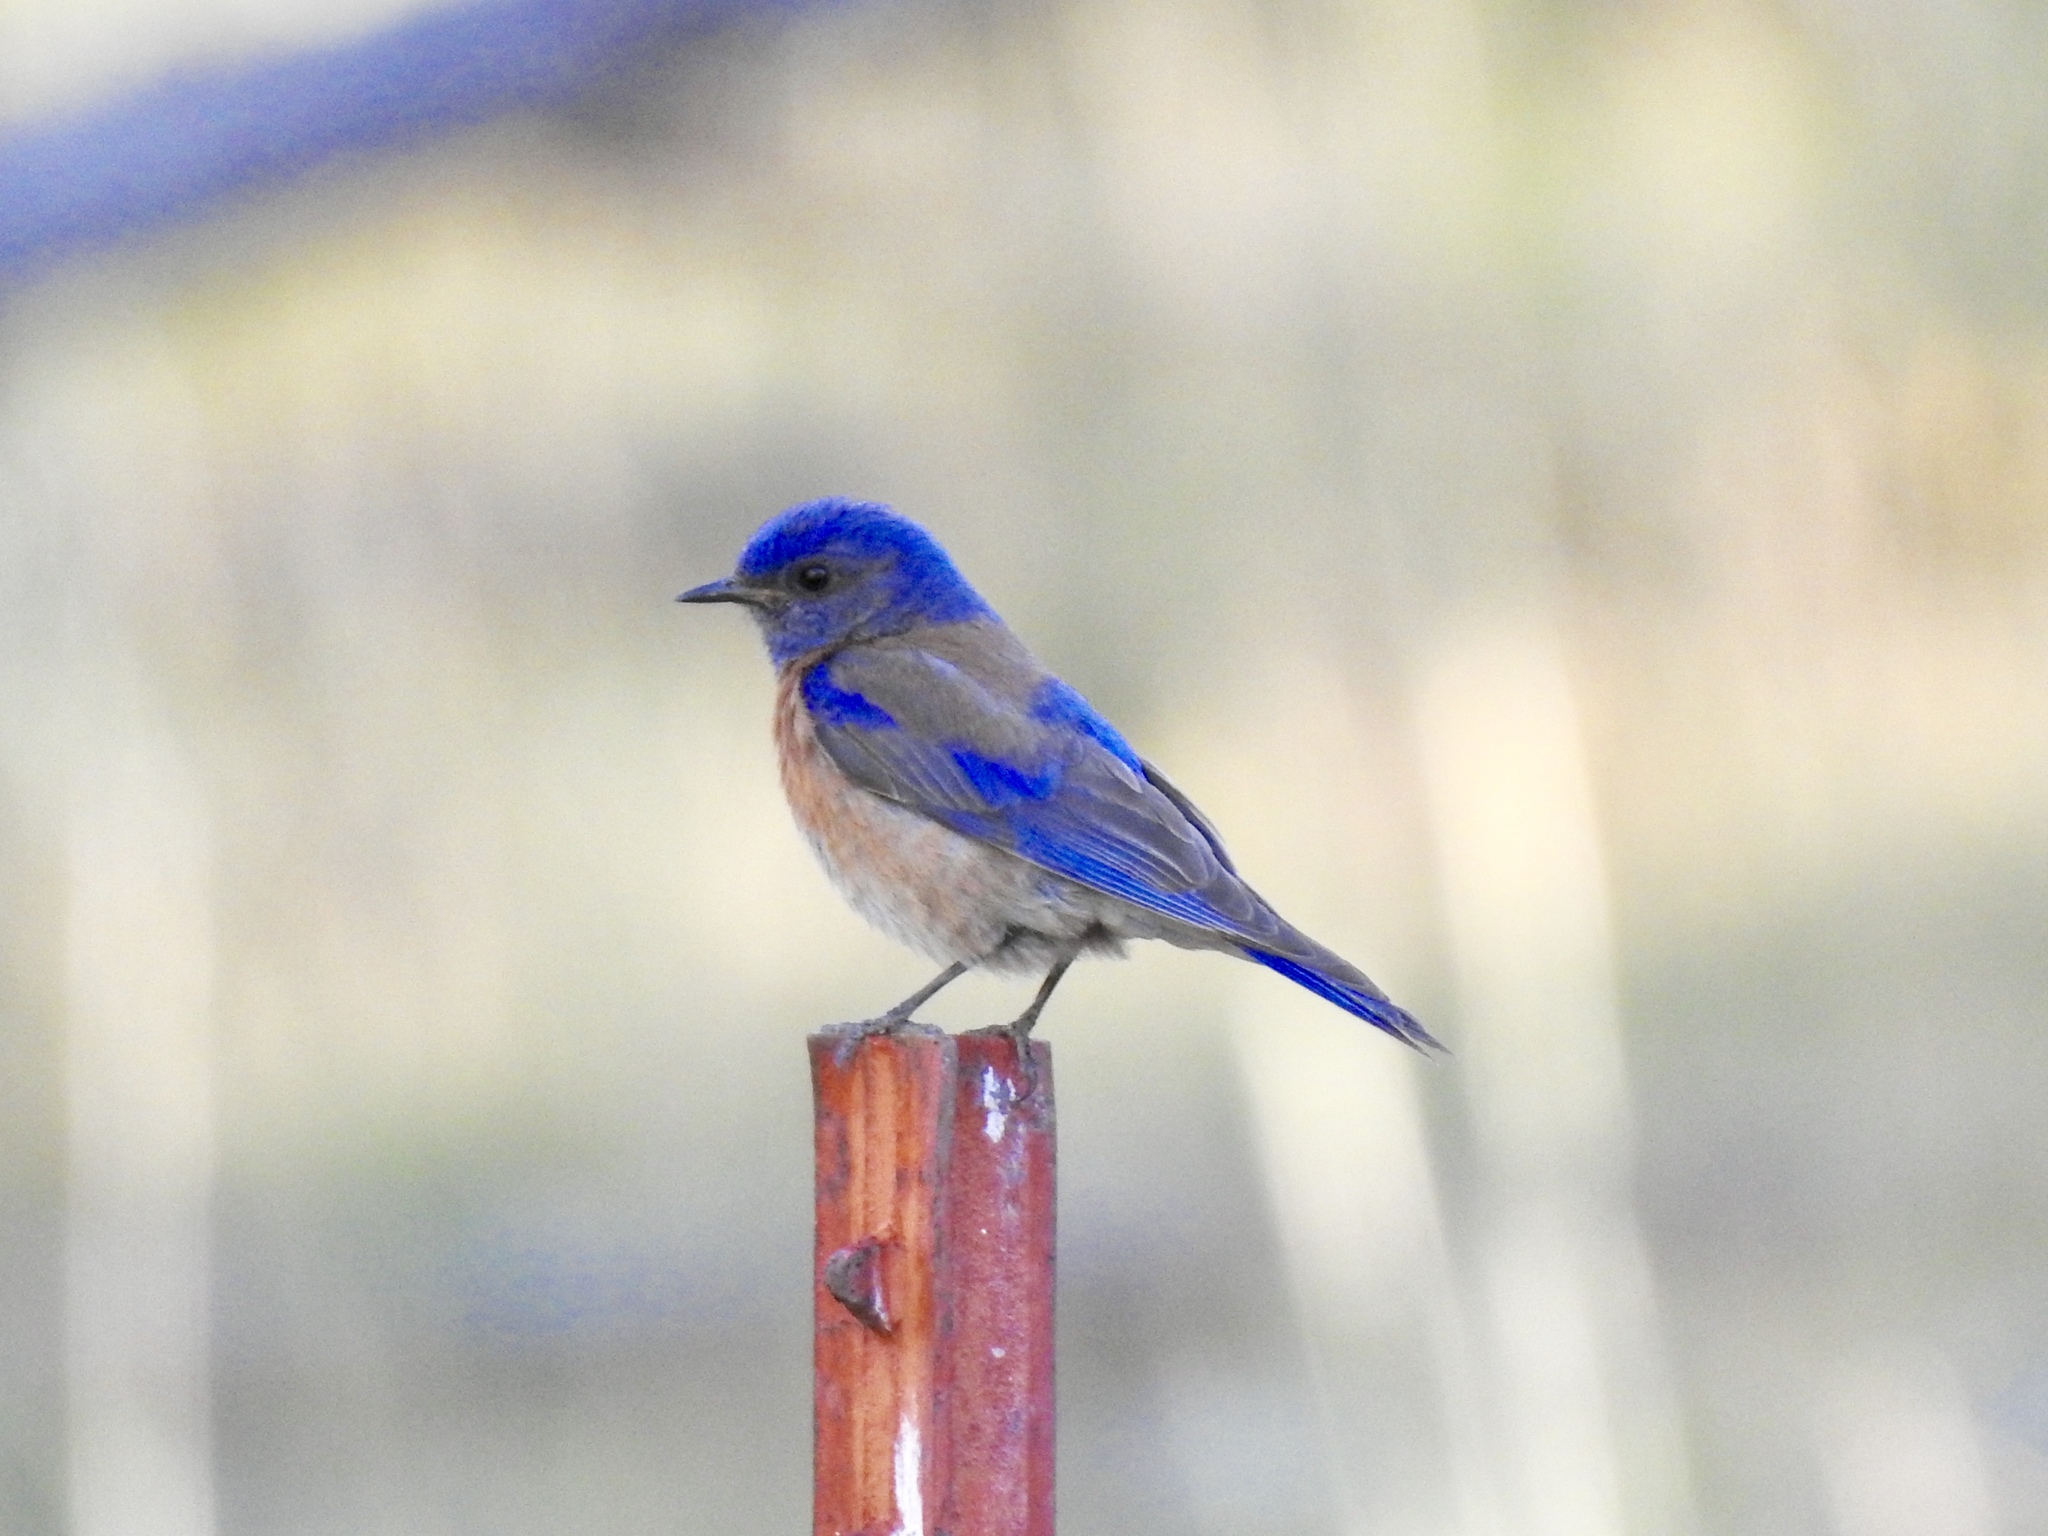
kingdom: Animalia
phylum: Chordata
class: Aves
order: Passeriformes
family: Turdidae
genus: Sialia
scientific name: Sialia mexicana
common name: Western bluebird
